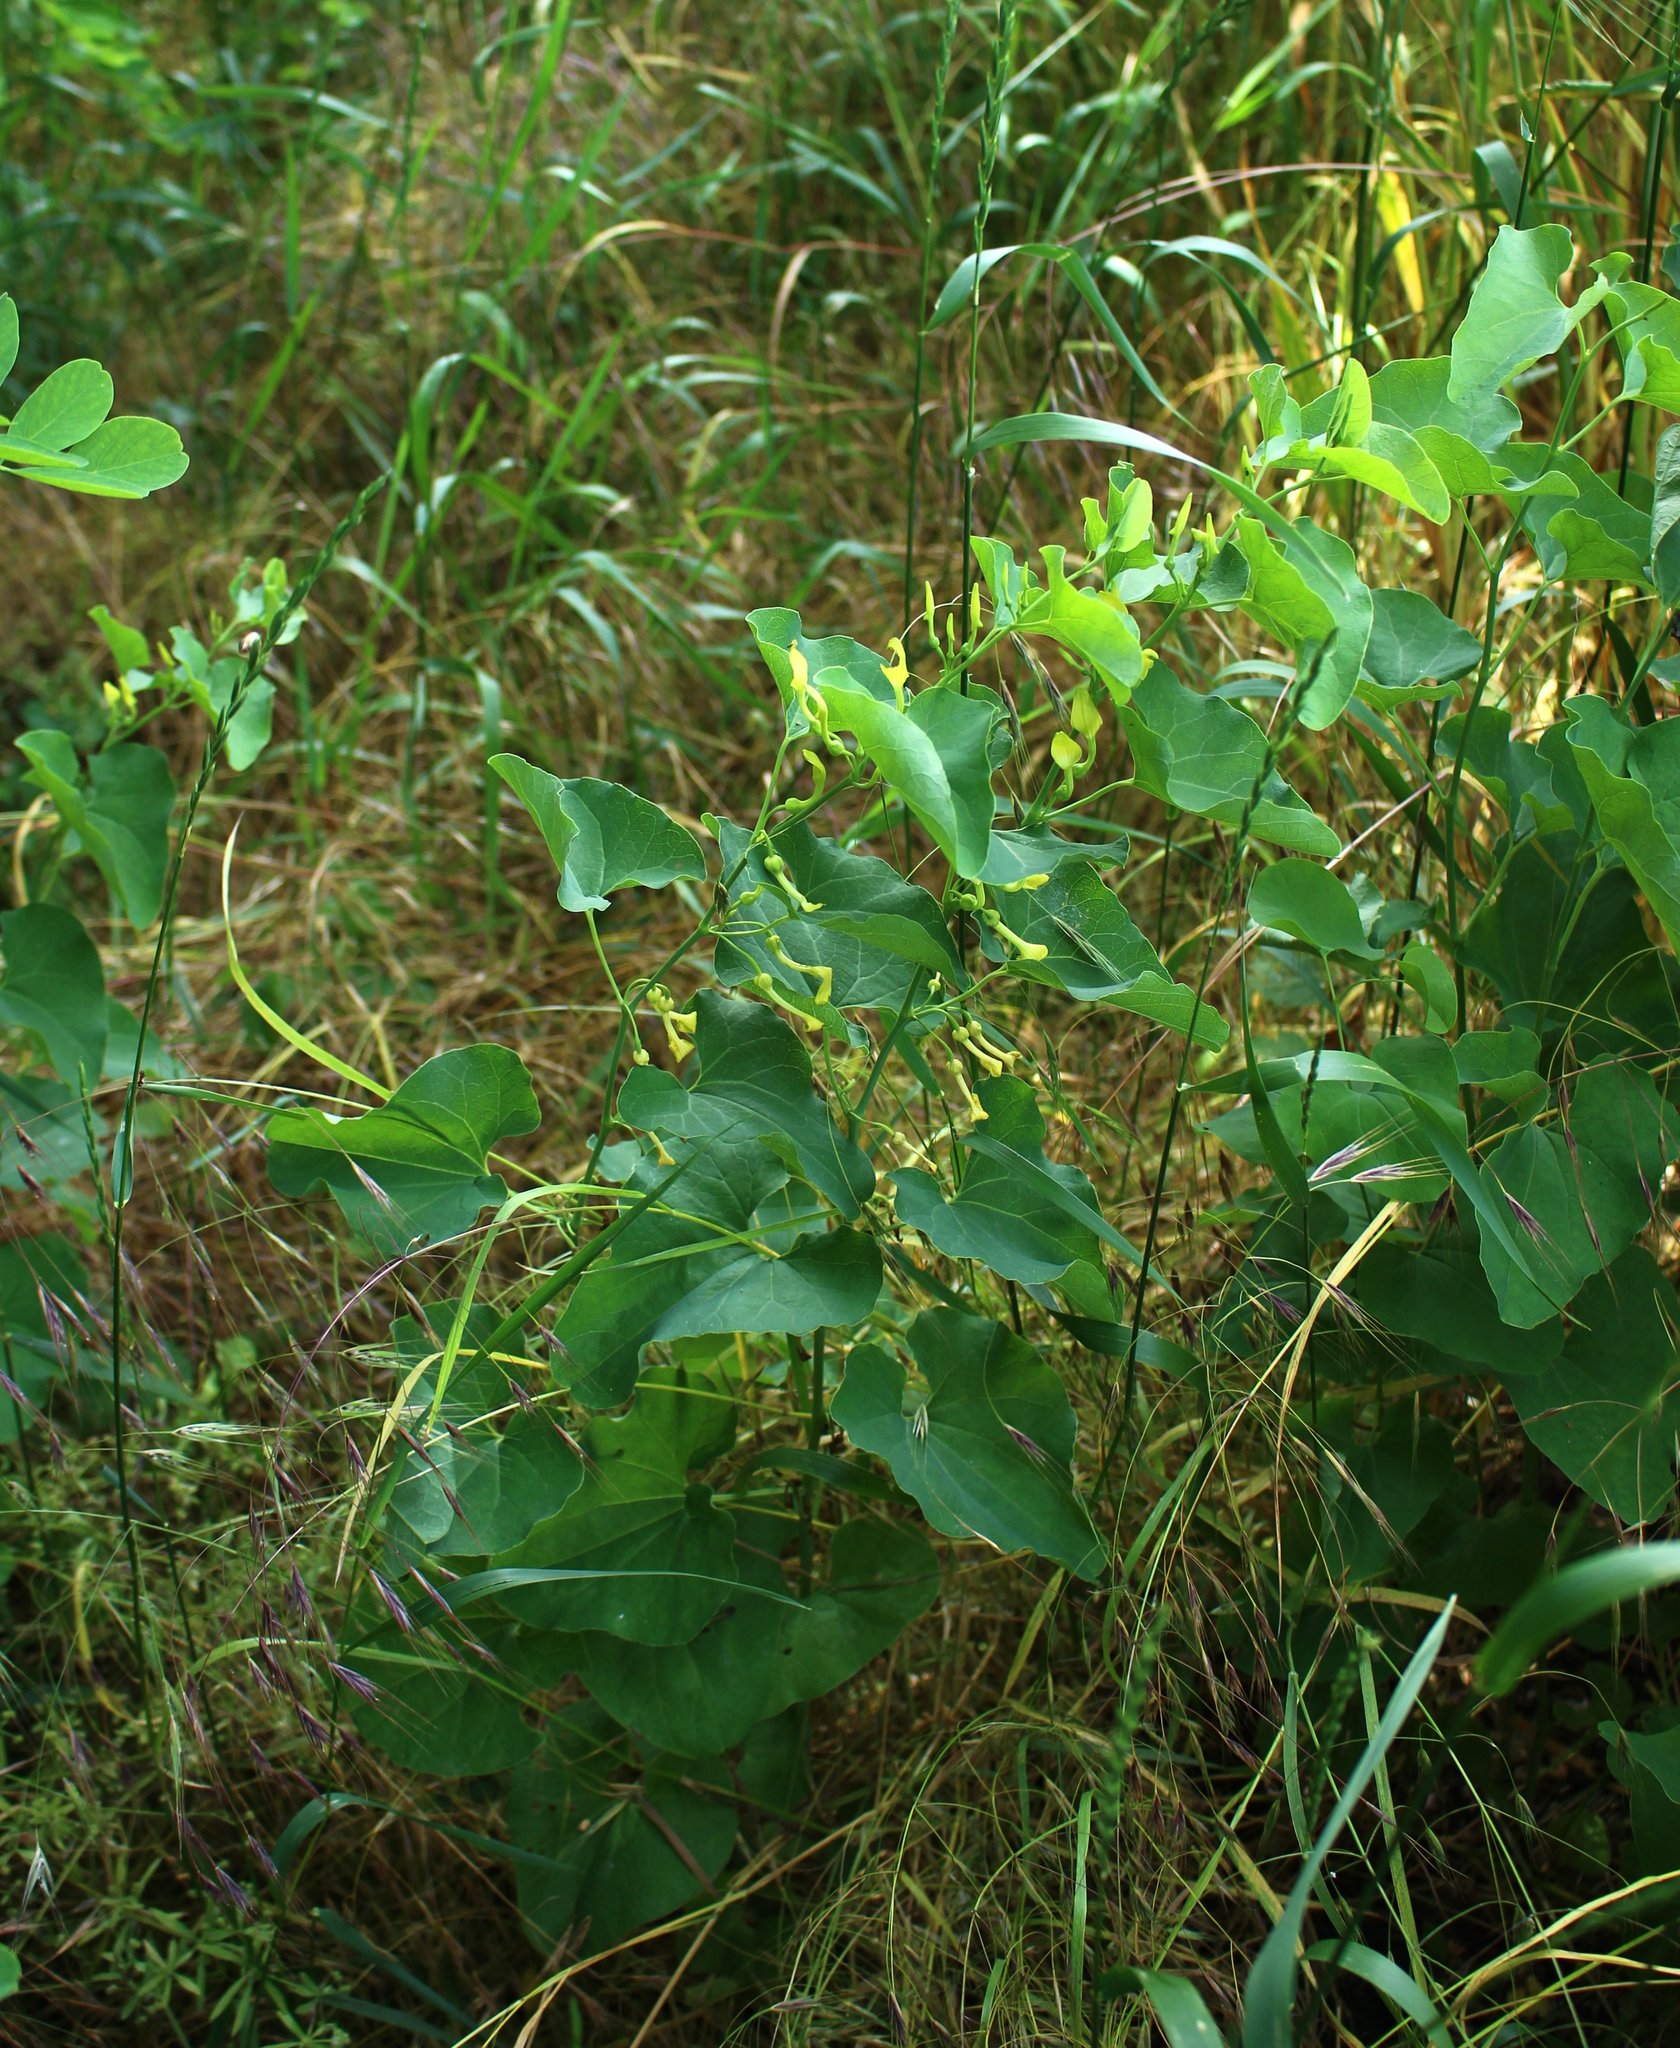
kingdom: Plantae
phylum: Tracheophyta
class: Magnoliopsida
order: Piperales
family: Aristolochiaceae
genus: Aristolochia
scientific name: Aristolochia clematitis
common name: Birthwort
